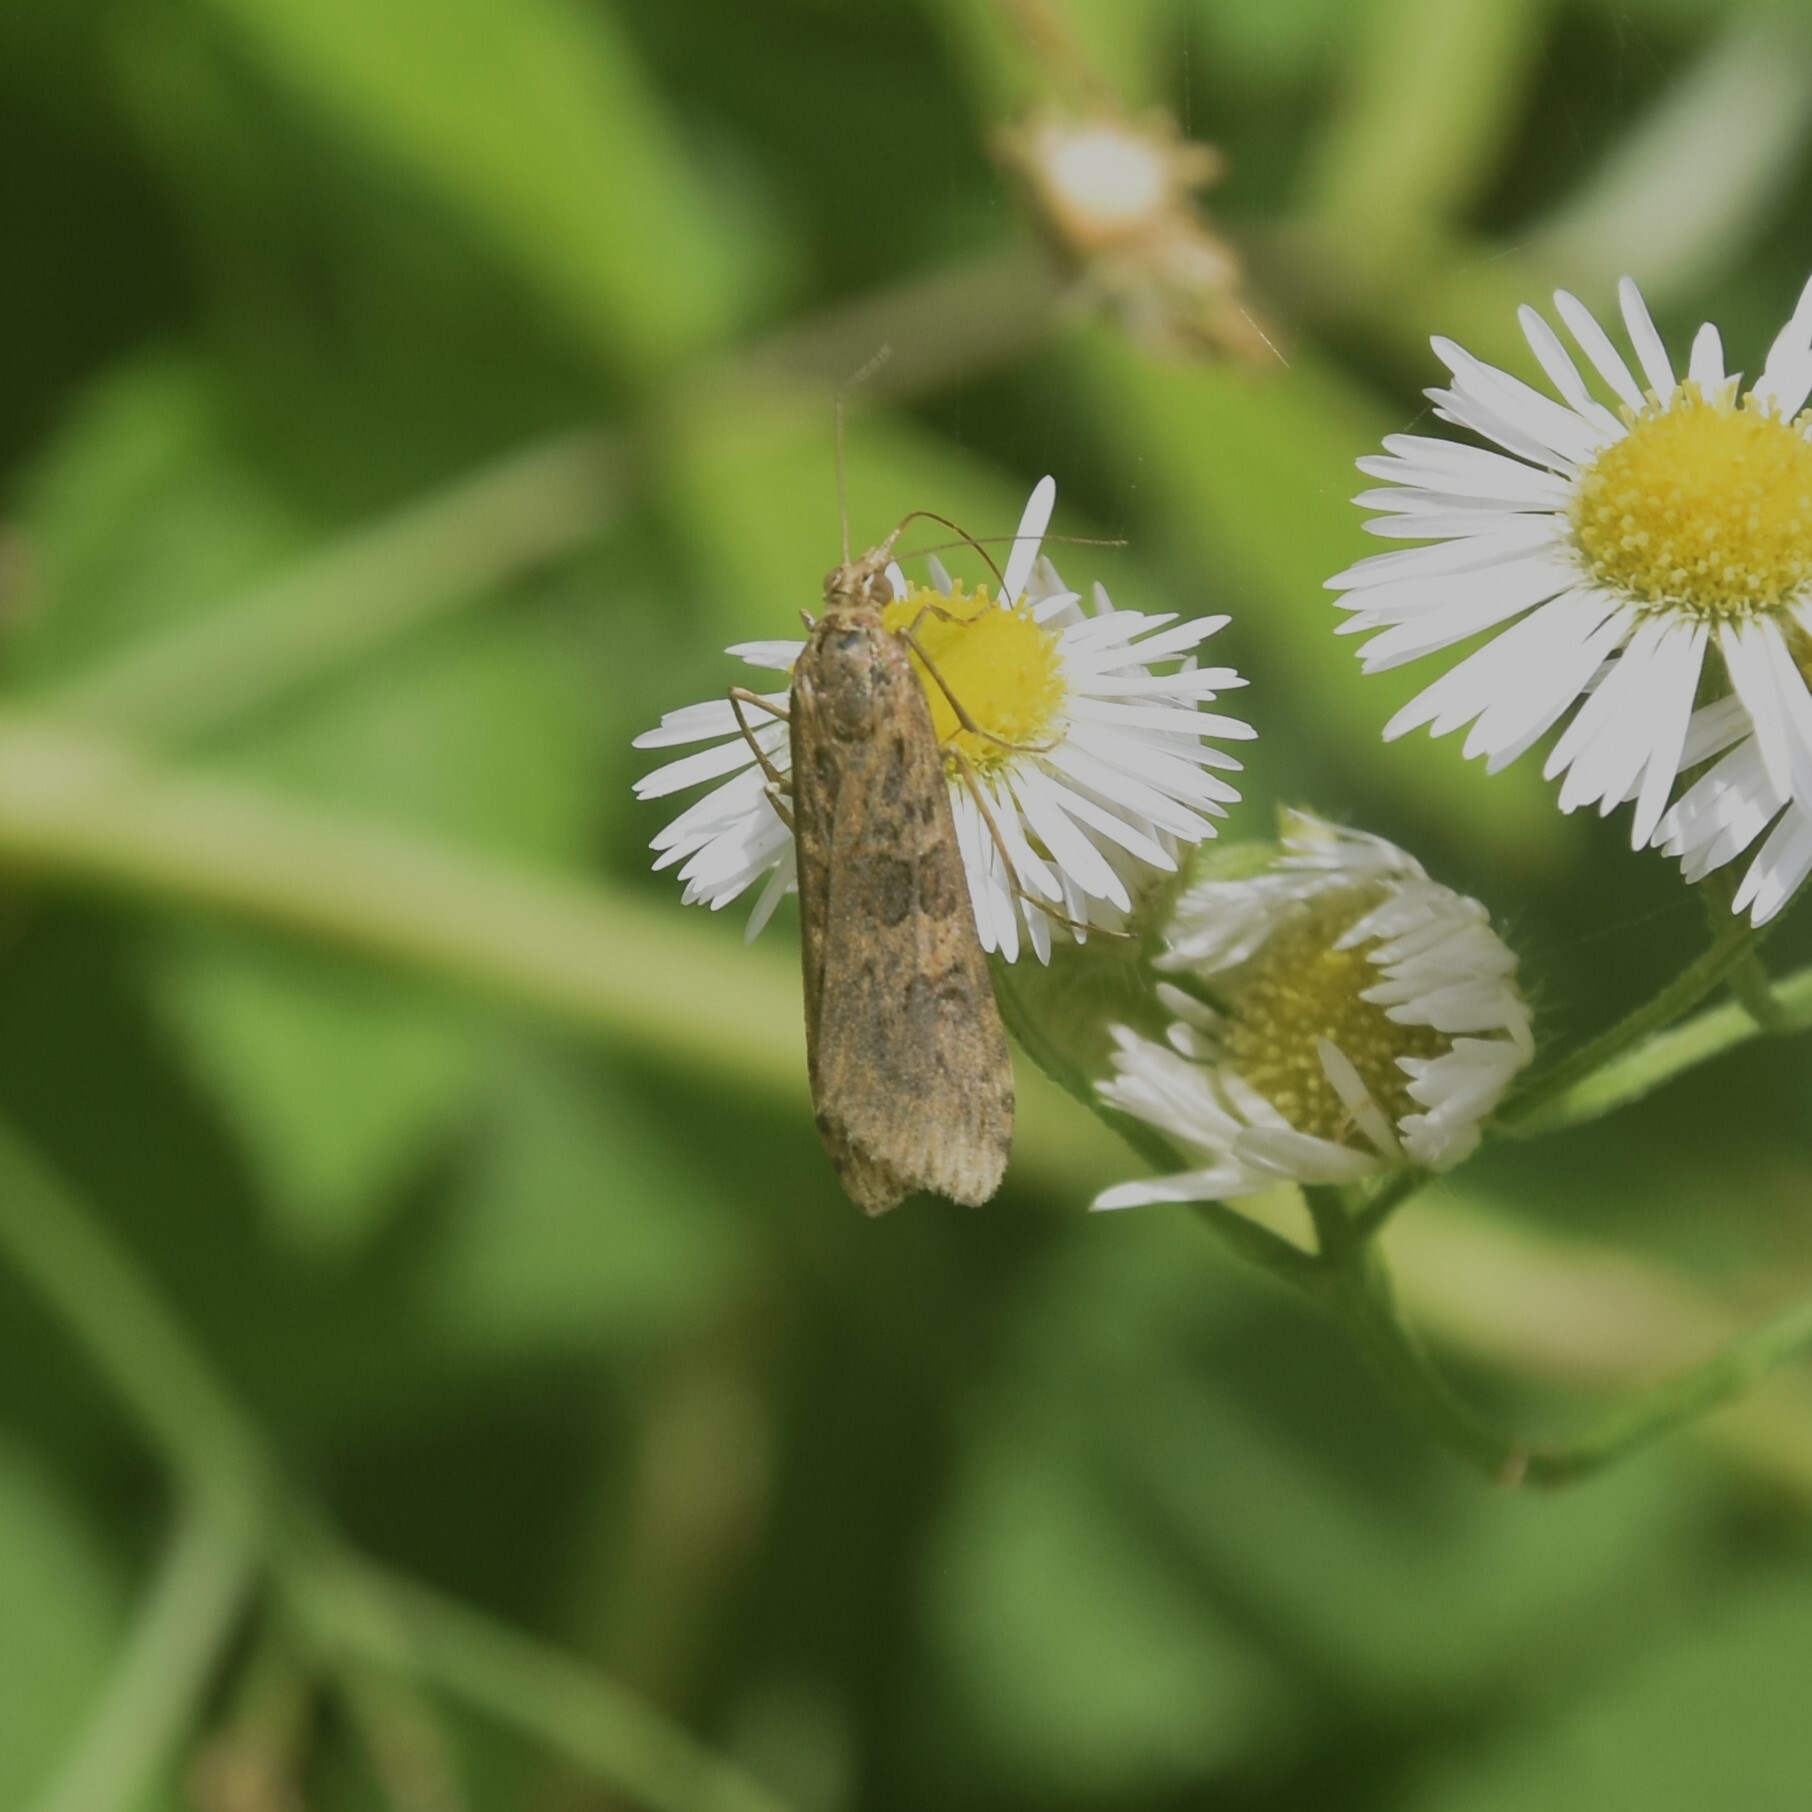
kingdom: Animalia
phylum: Arthropoda
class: Insecta
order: Lepidoptera
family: Crambidae
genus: Nomophila
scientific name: Nomophila noctuella
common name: Rush veneer
